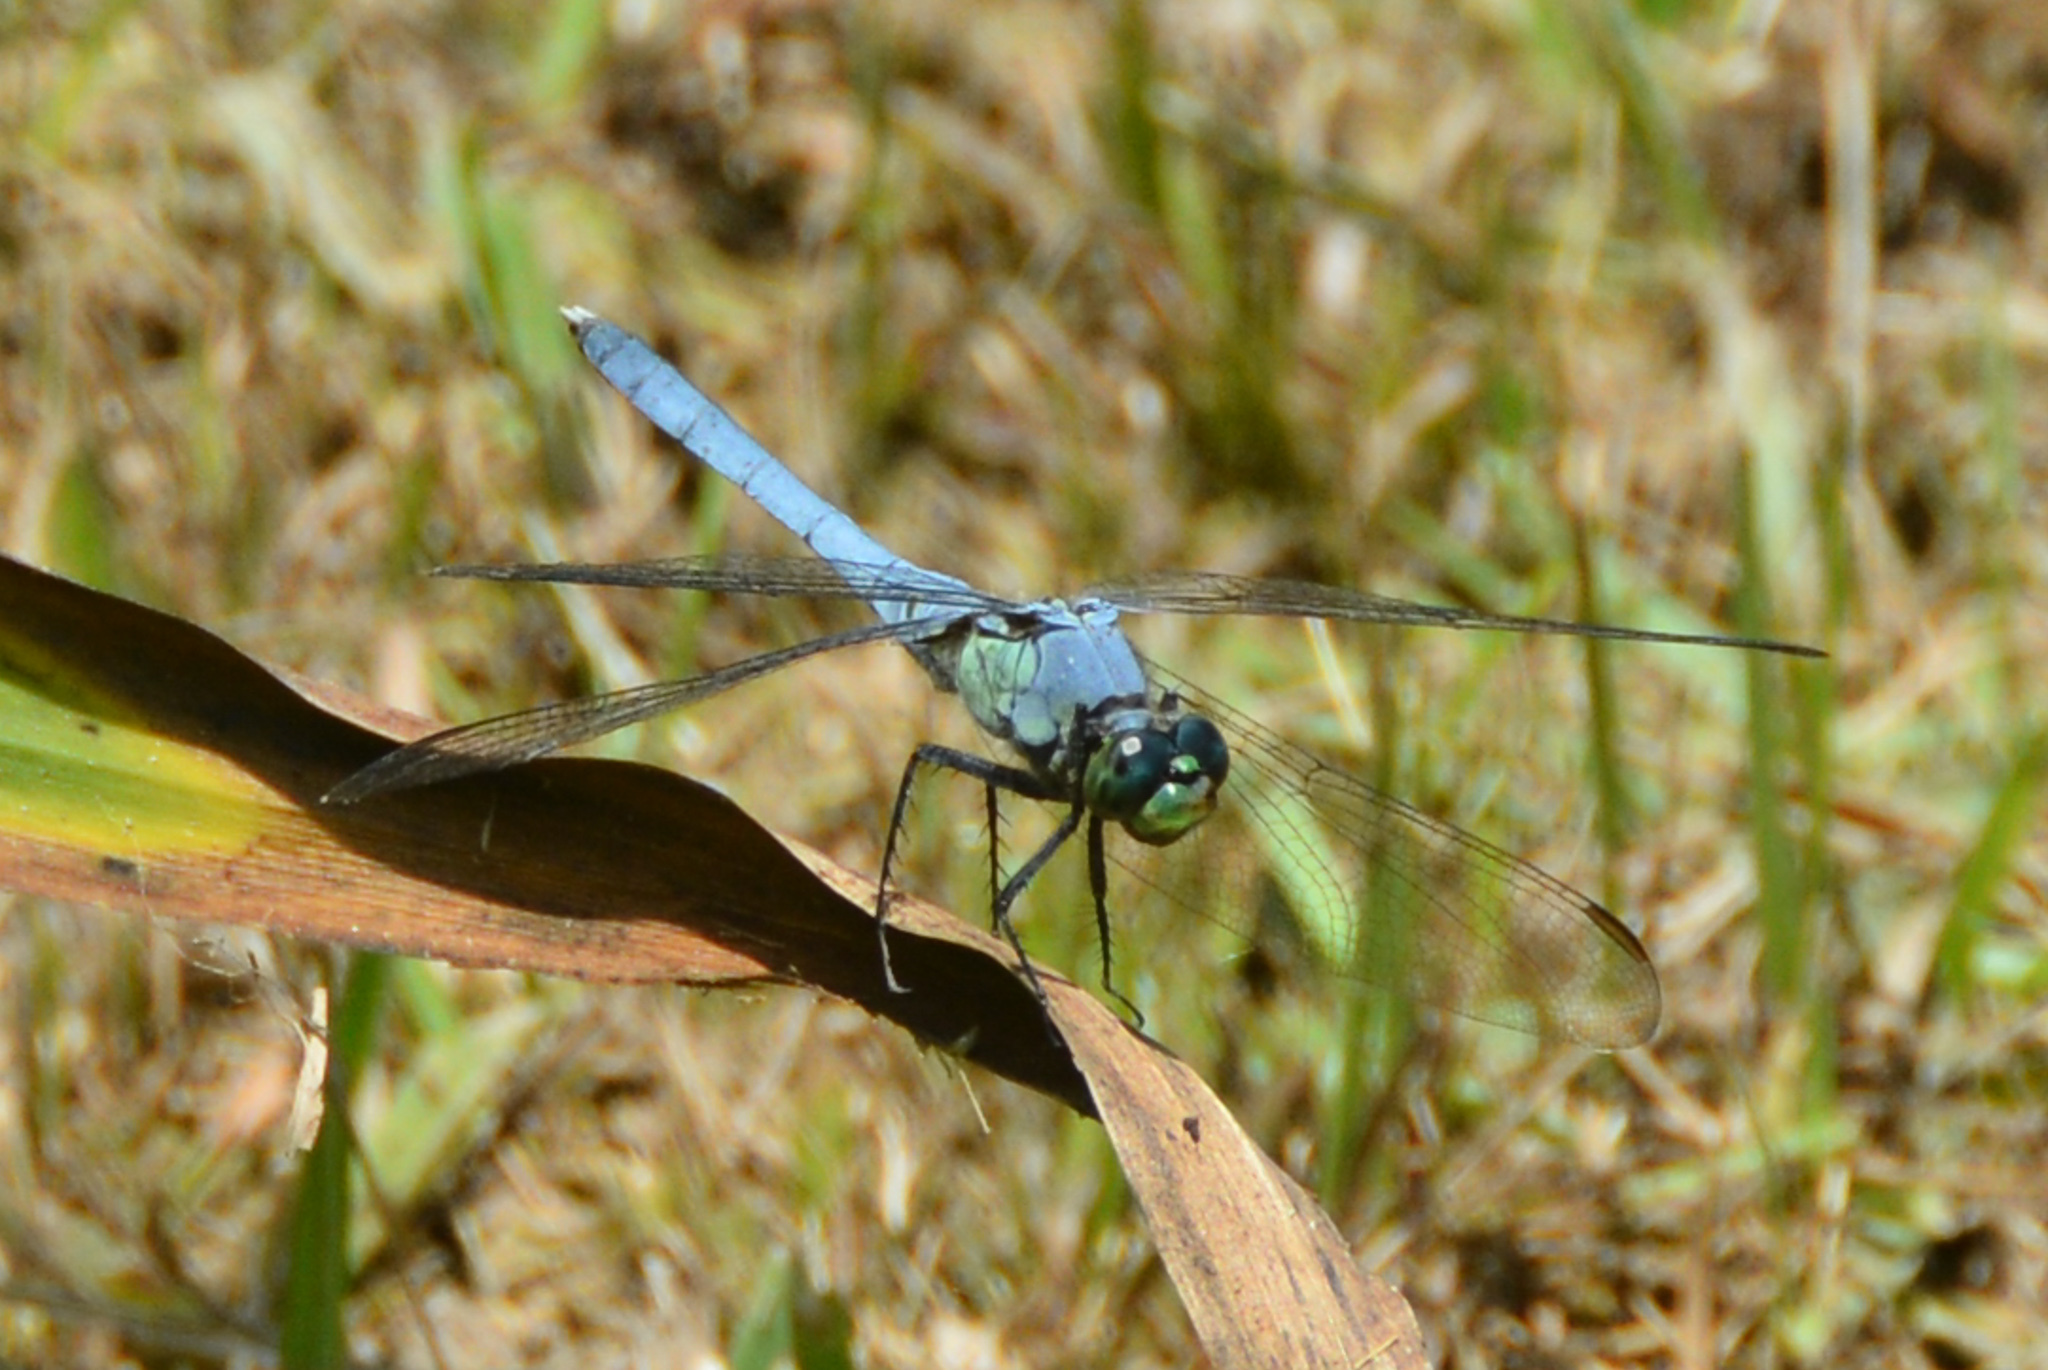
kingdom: Animalia
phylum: Arthropoda
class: Insecta
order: Odonata
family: Libellulidae
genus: Erythemis
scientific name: Erythemis simplicicollis
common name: Eastern pondhawk
